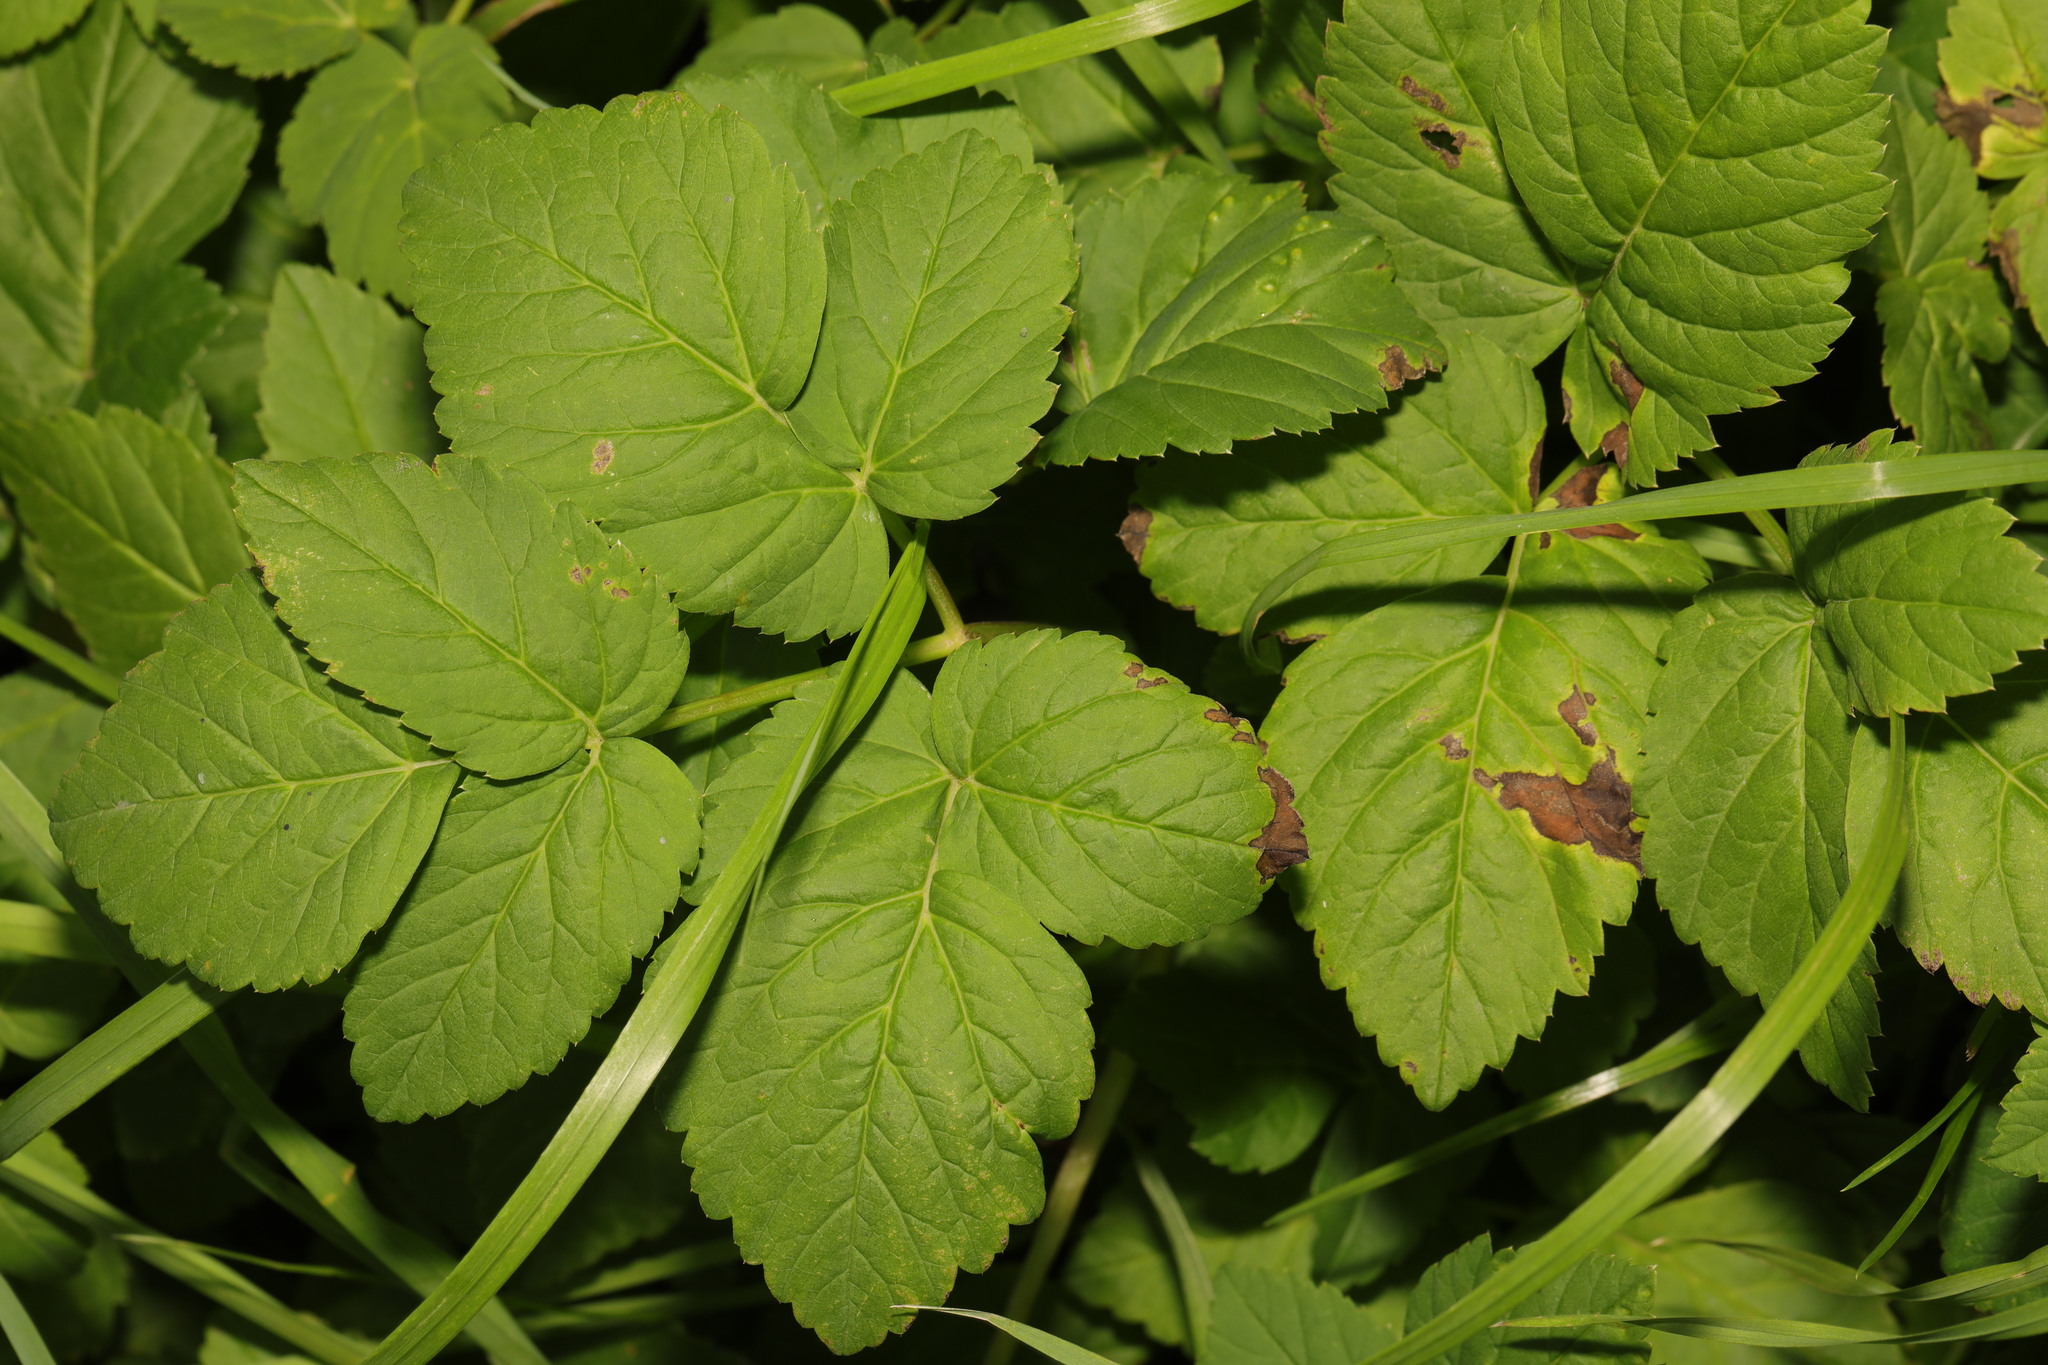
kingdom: Plantae
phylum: Tracheophyta
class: Magnoliopsida
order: Apiales
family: Apiaceae
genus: Aegopodium
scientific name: Aegopodium podagraria
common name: Ground-elder
